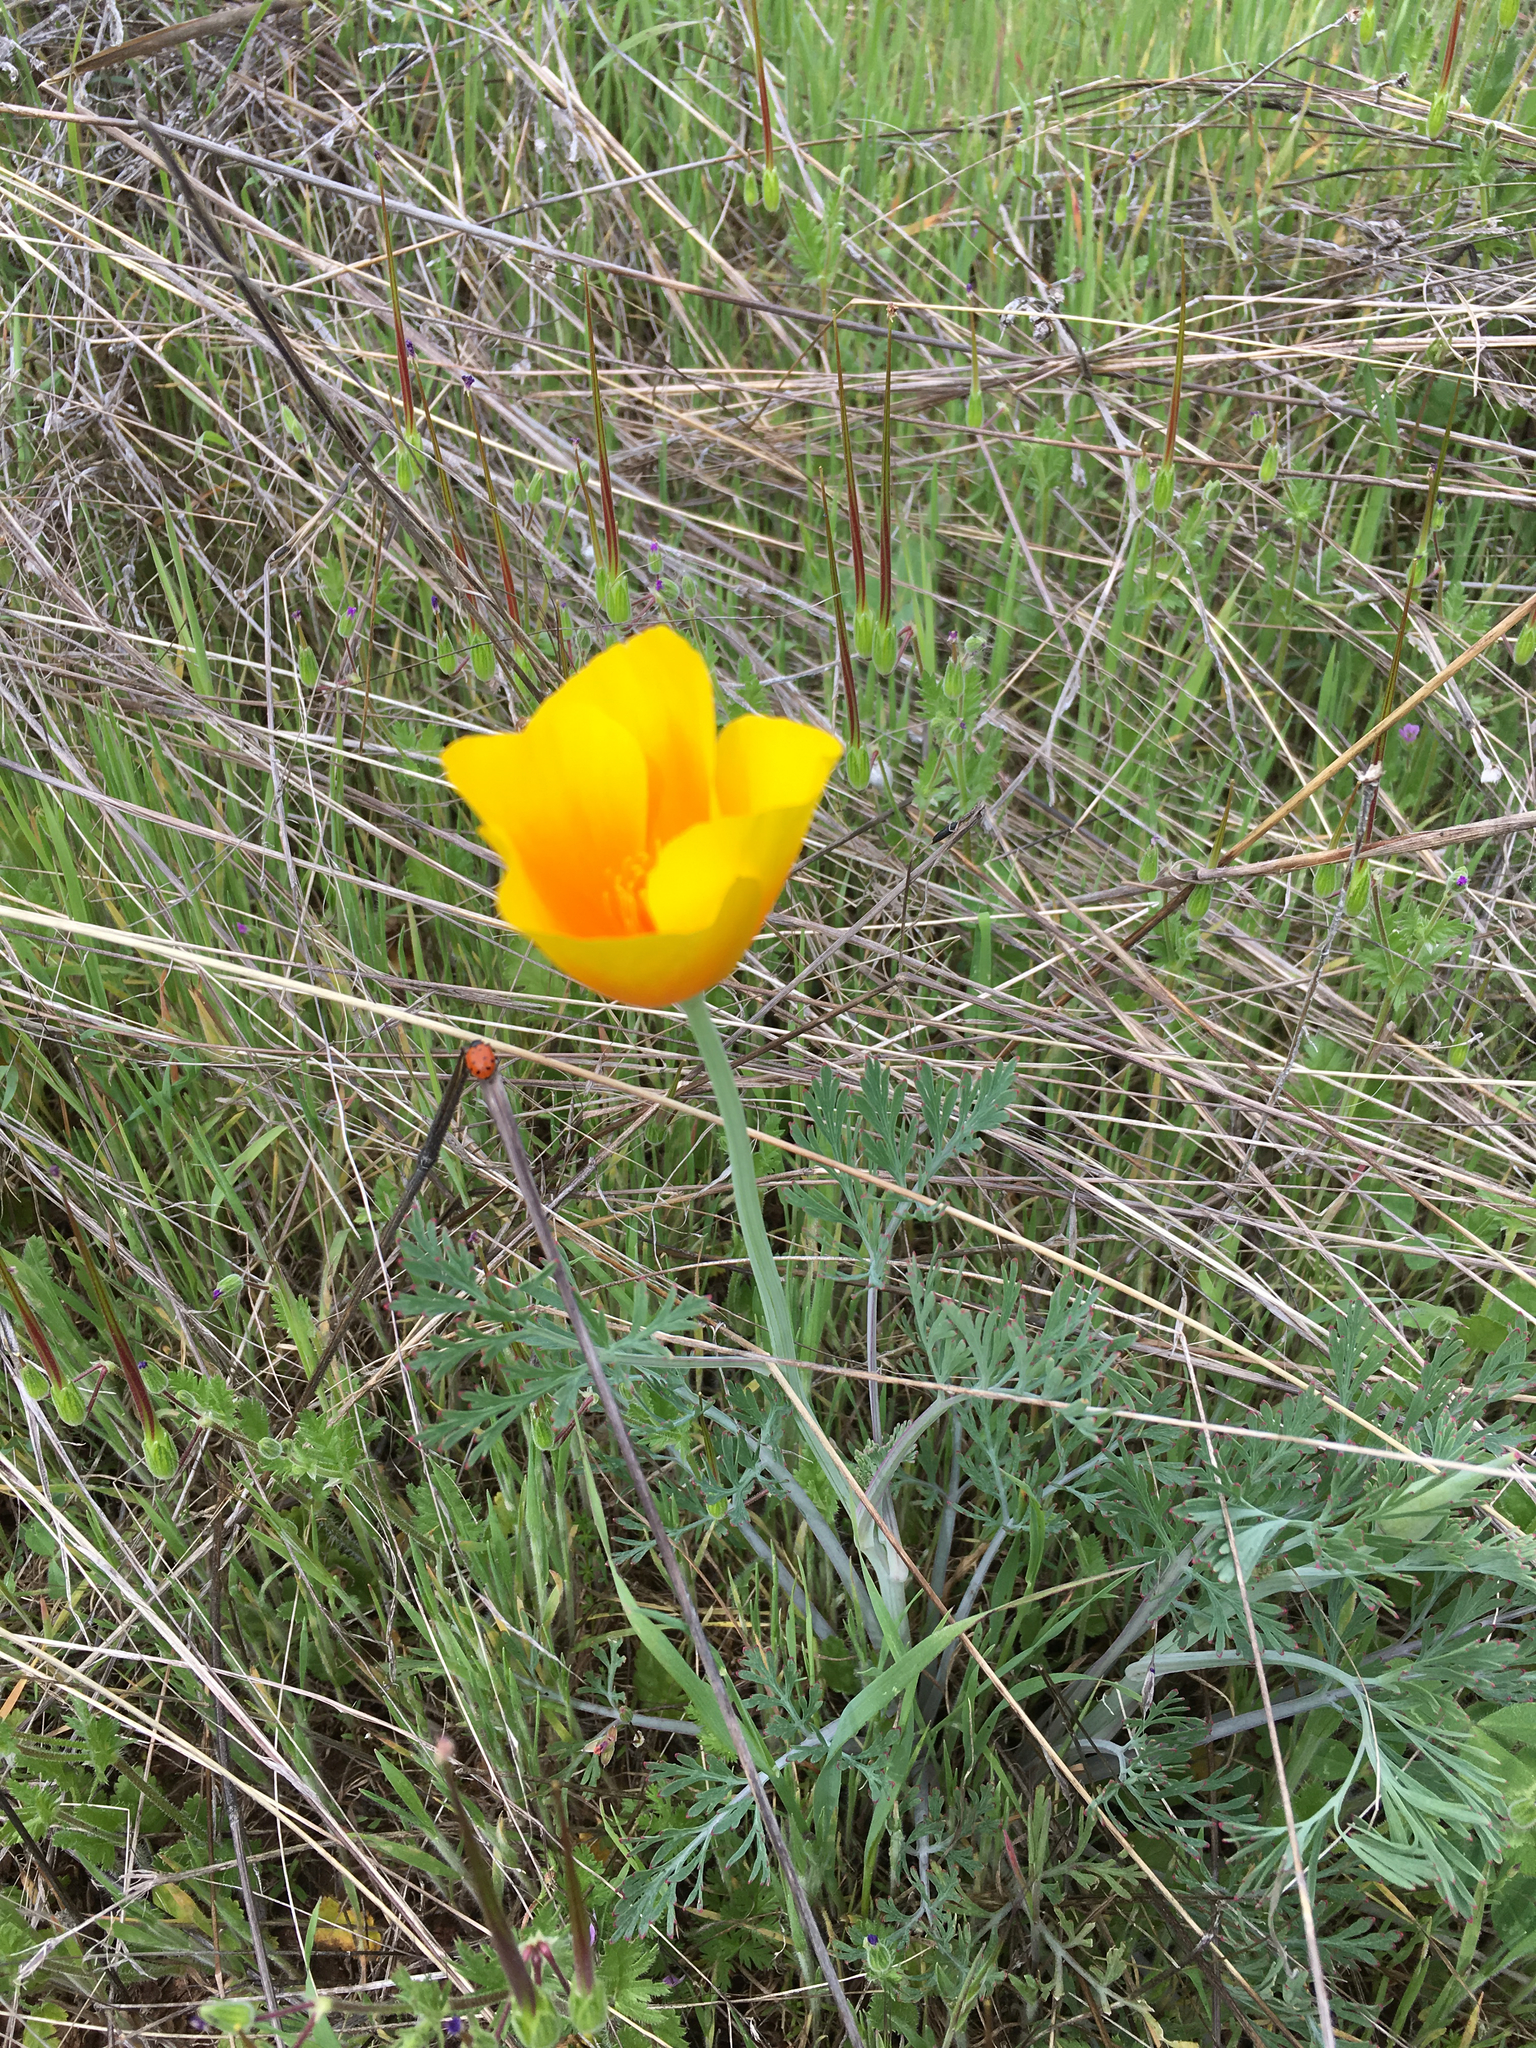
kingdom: Plantae
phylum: Tracheophyta
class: Magnoliopsida
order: Ranunculales
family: Papaveraceae
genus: Eschscholzia
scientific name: Eschscholzia californica
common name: California poppy
